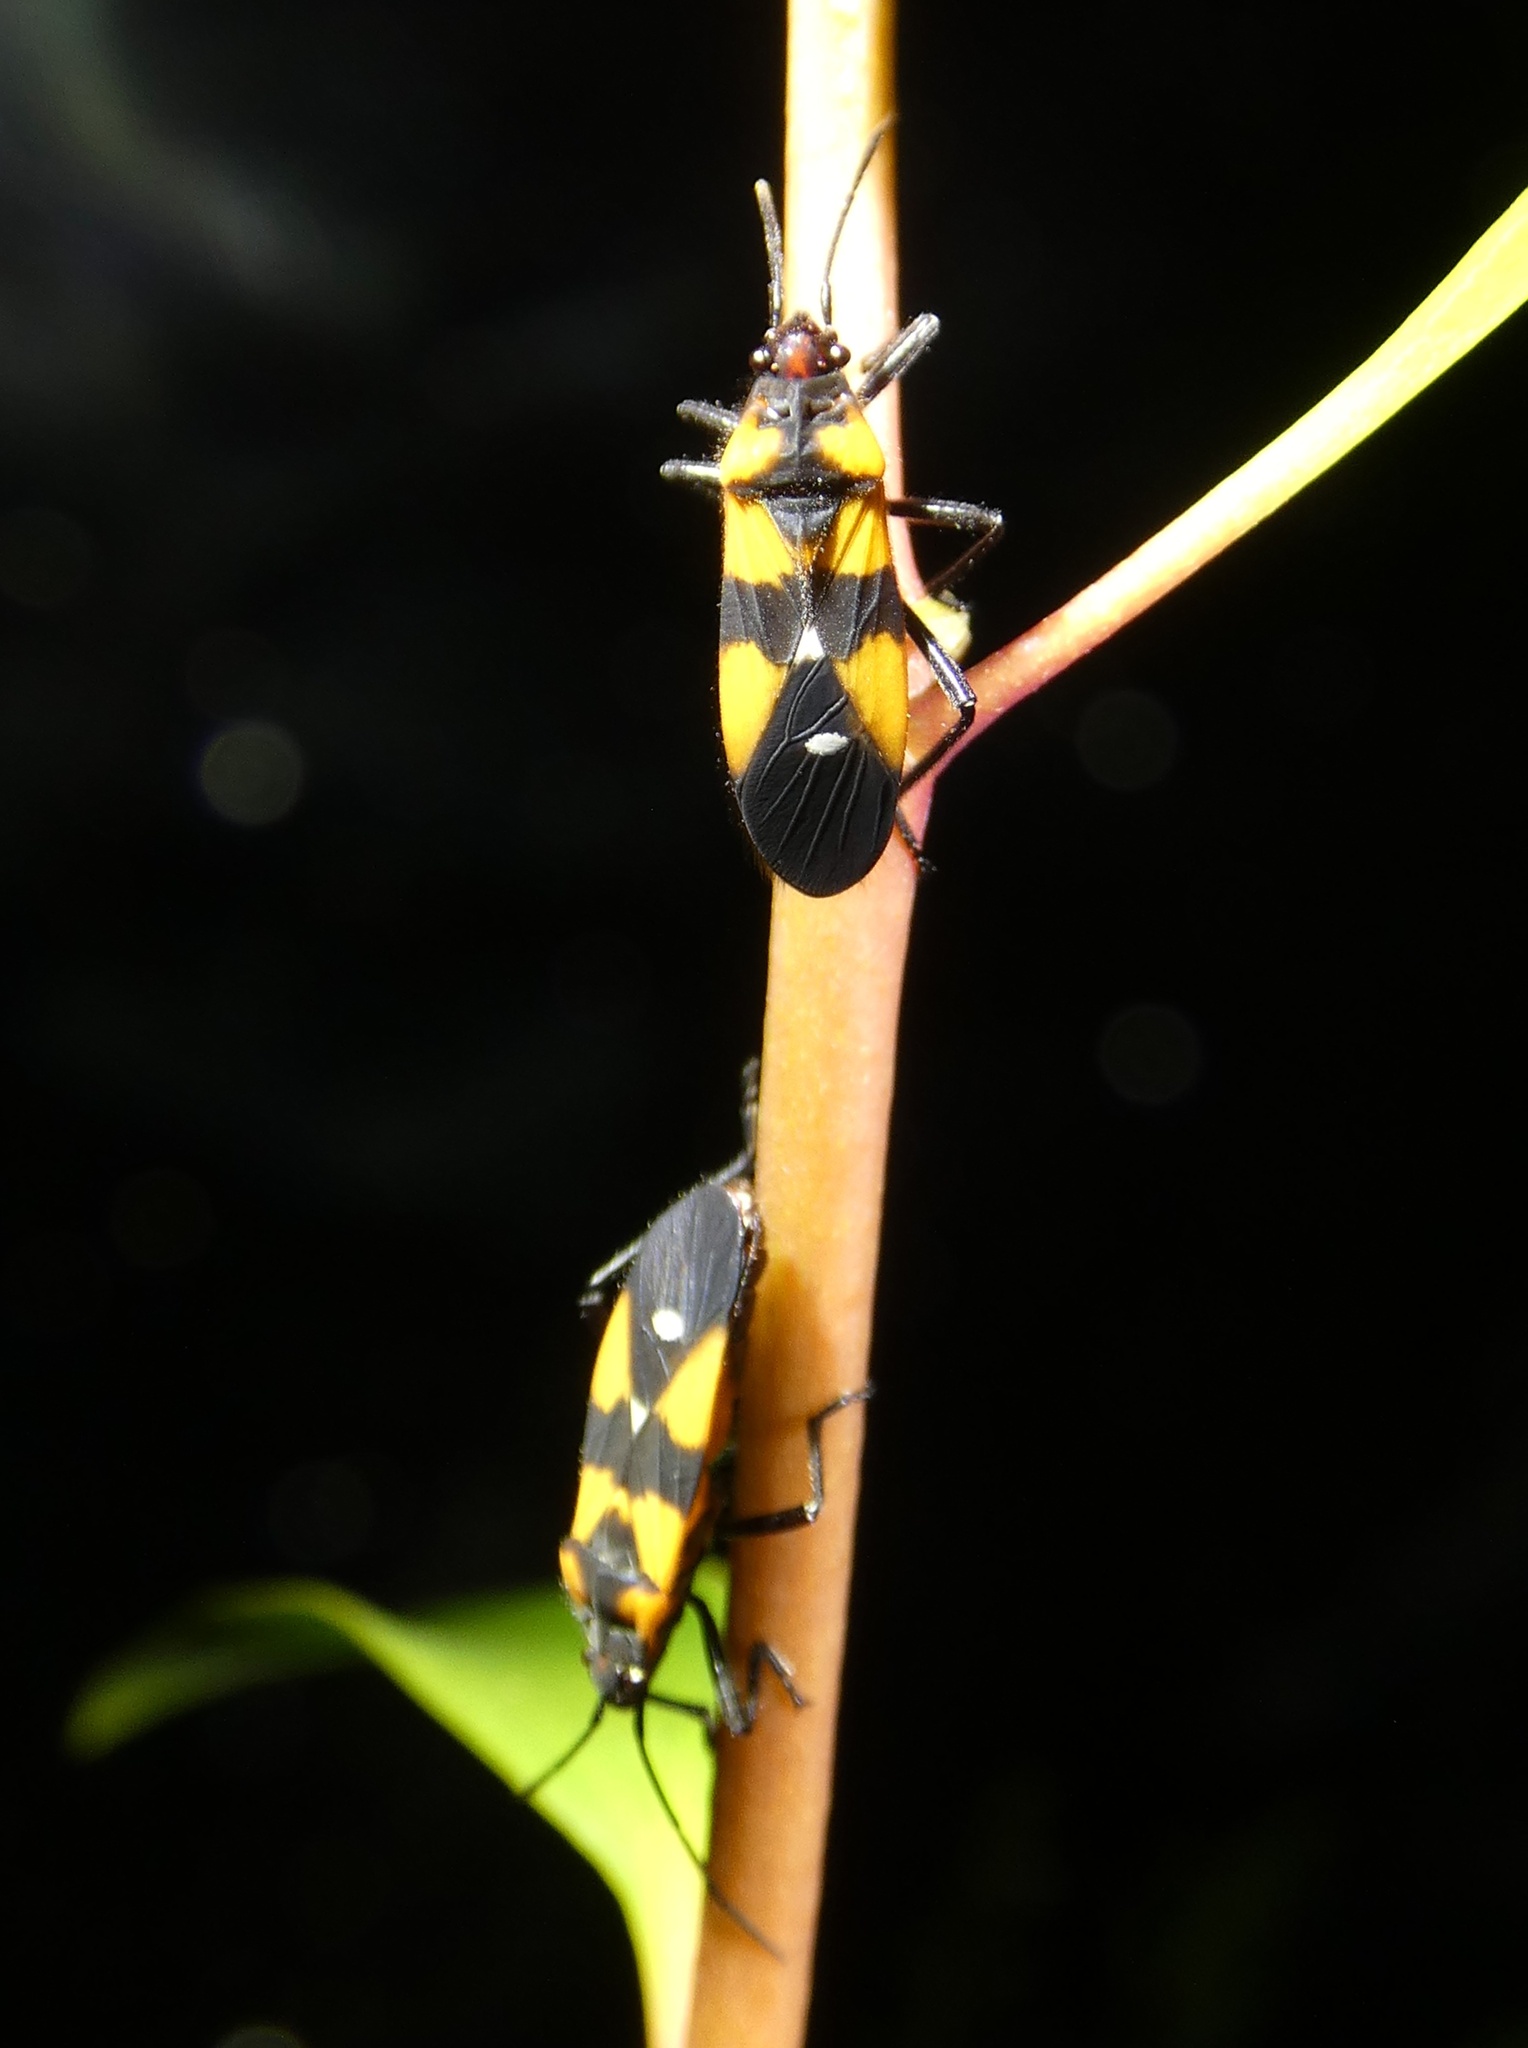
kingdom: Animalia
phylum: Arthropoda
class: Insecta
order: Hemiptera
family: Lygaeidae
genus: Oncopeltus
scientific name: Oncopeltus quadriguttatus
